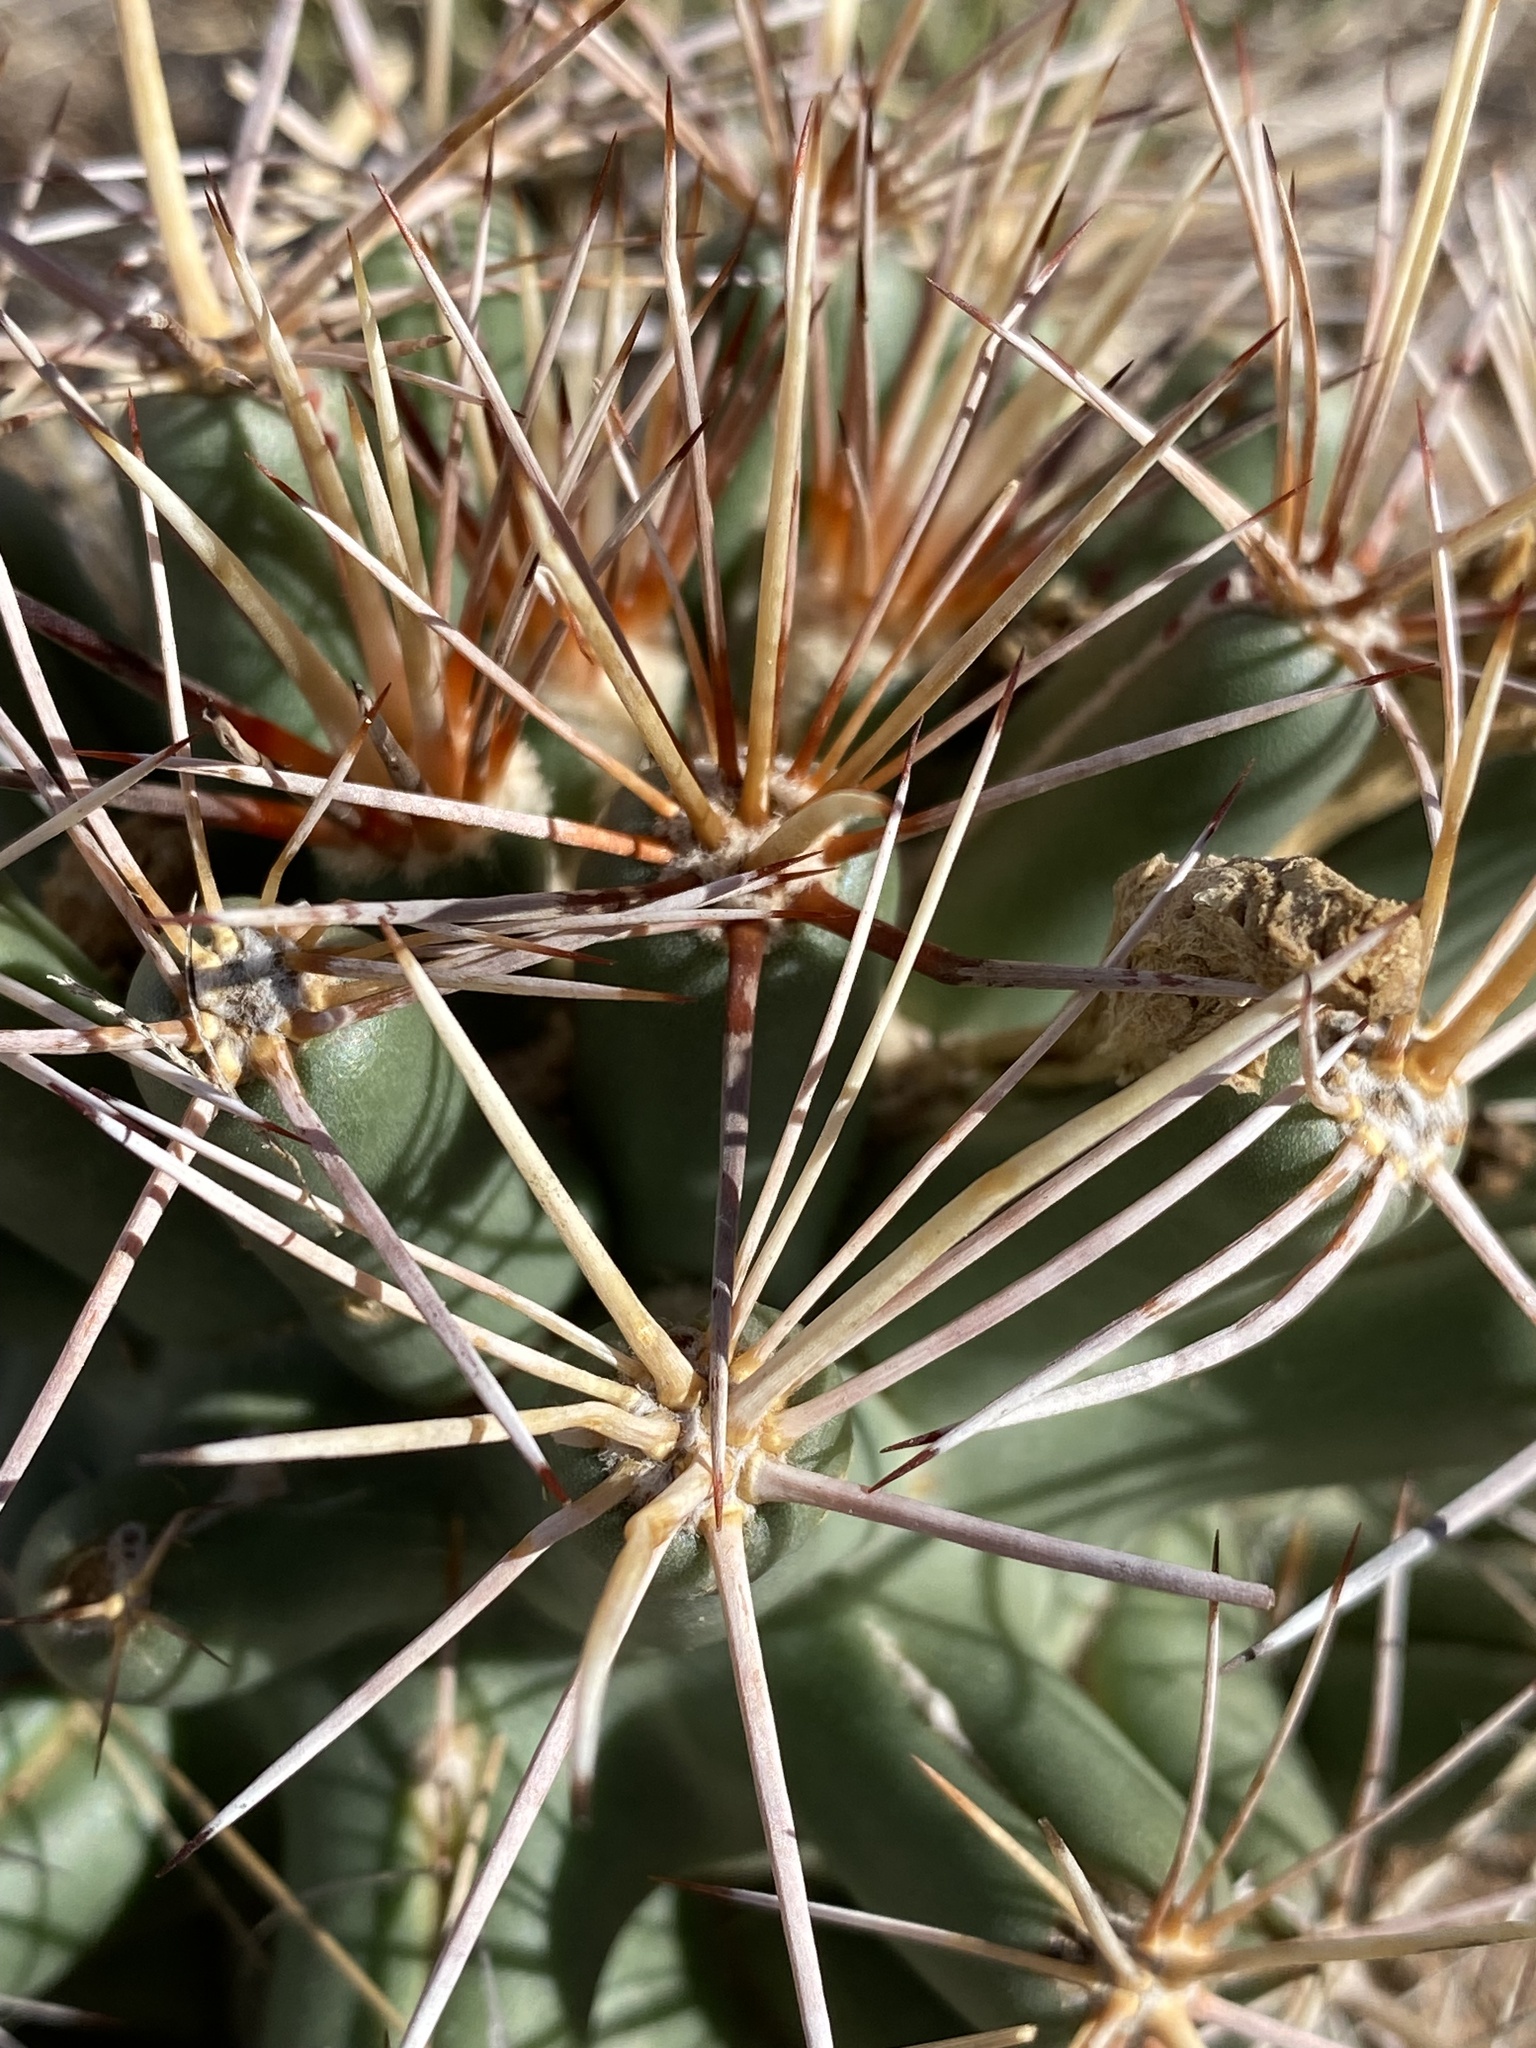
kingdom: Plantae
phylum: Tracheophyta
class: Magnoliopsida
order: Caryophyllales
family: Cactaceae
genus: Coryphantha
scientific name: Coryphantha robustispina
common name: Pima pineapple cactus
